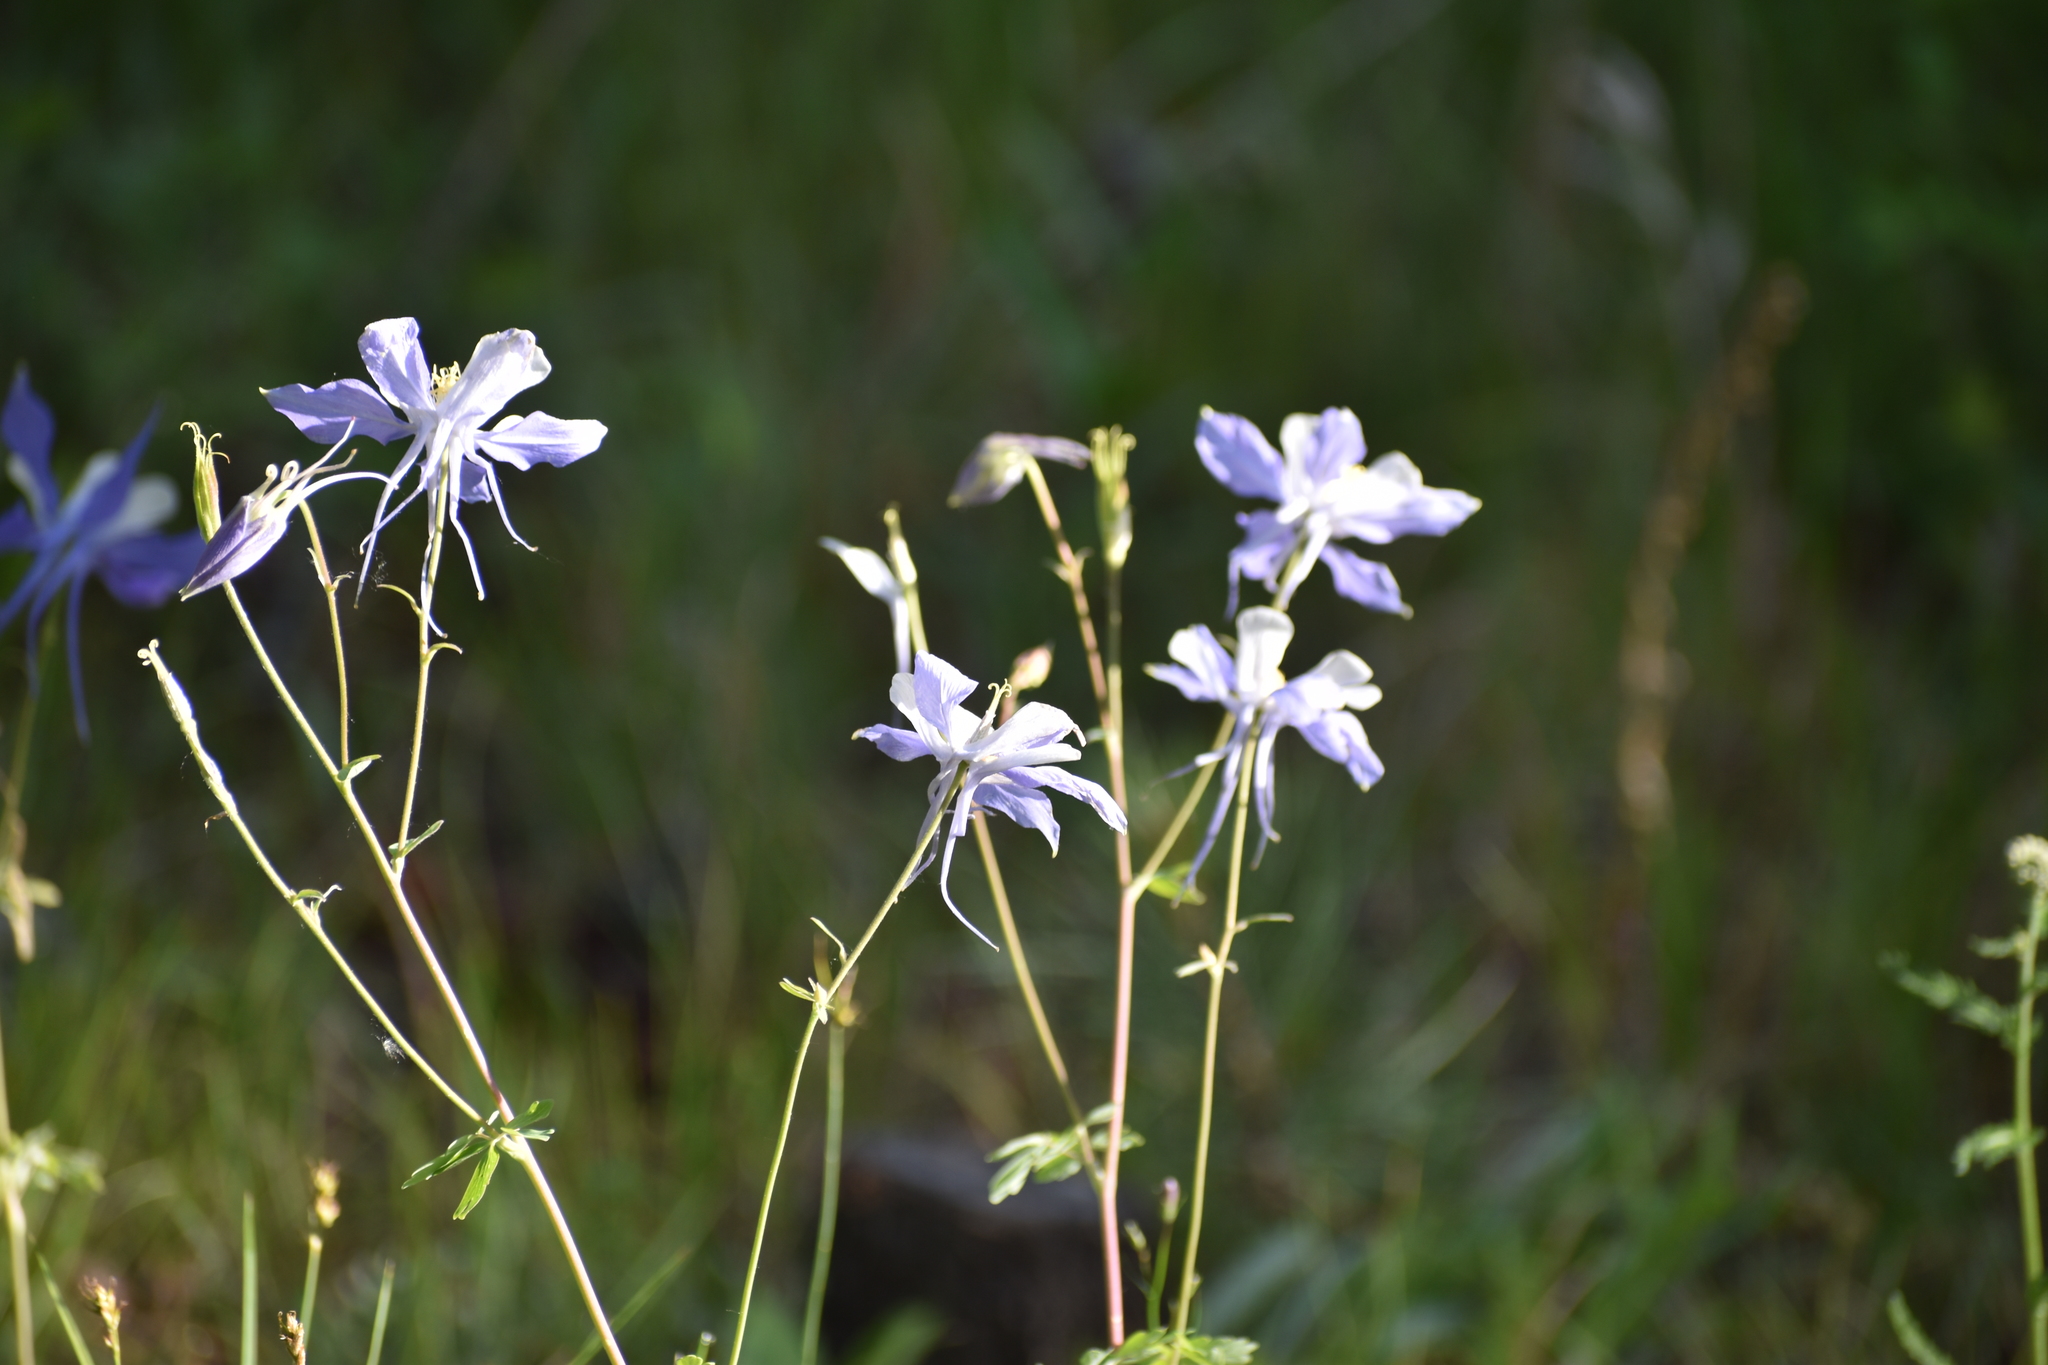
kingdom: Plantae
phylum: Tracheophyta
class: Magnoliopsida
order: Ranunculales
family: Ranunculaceae
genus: Aquilegia
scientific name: Aquilegia coerulea
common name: Rocky mountain columbine
